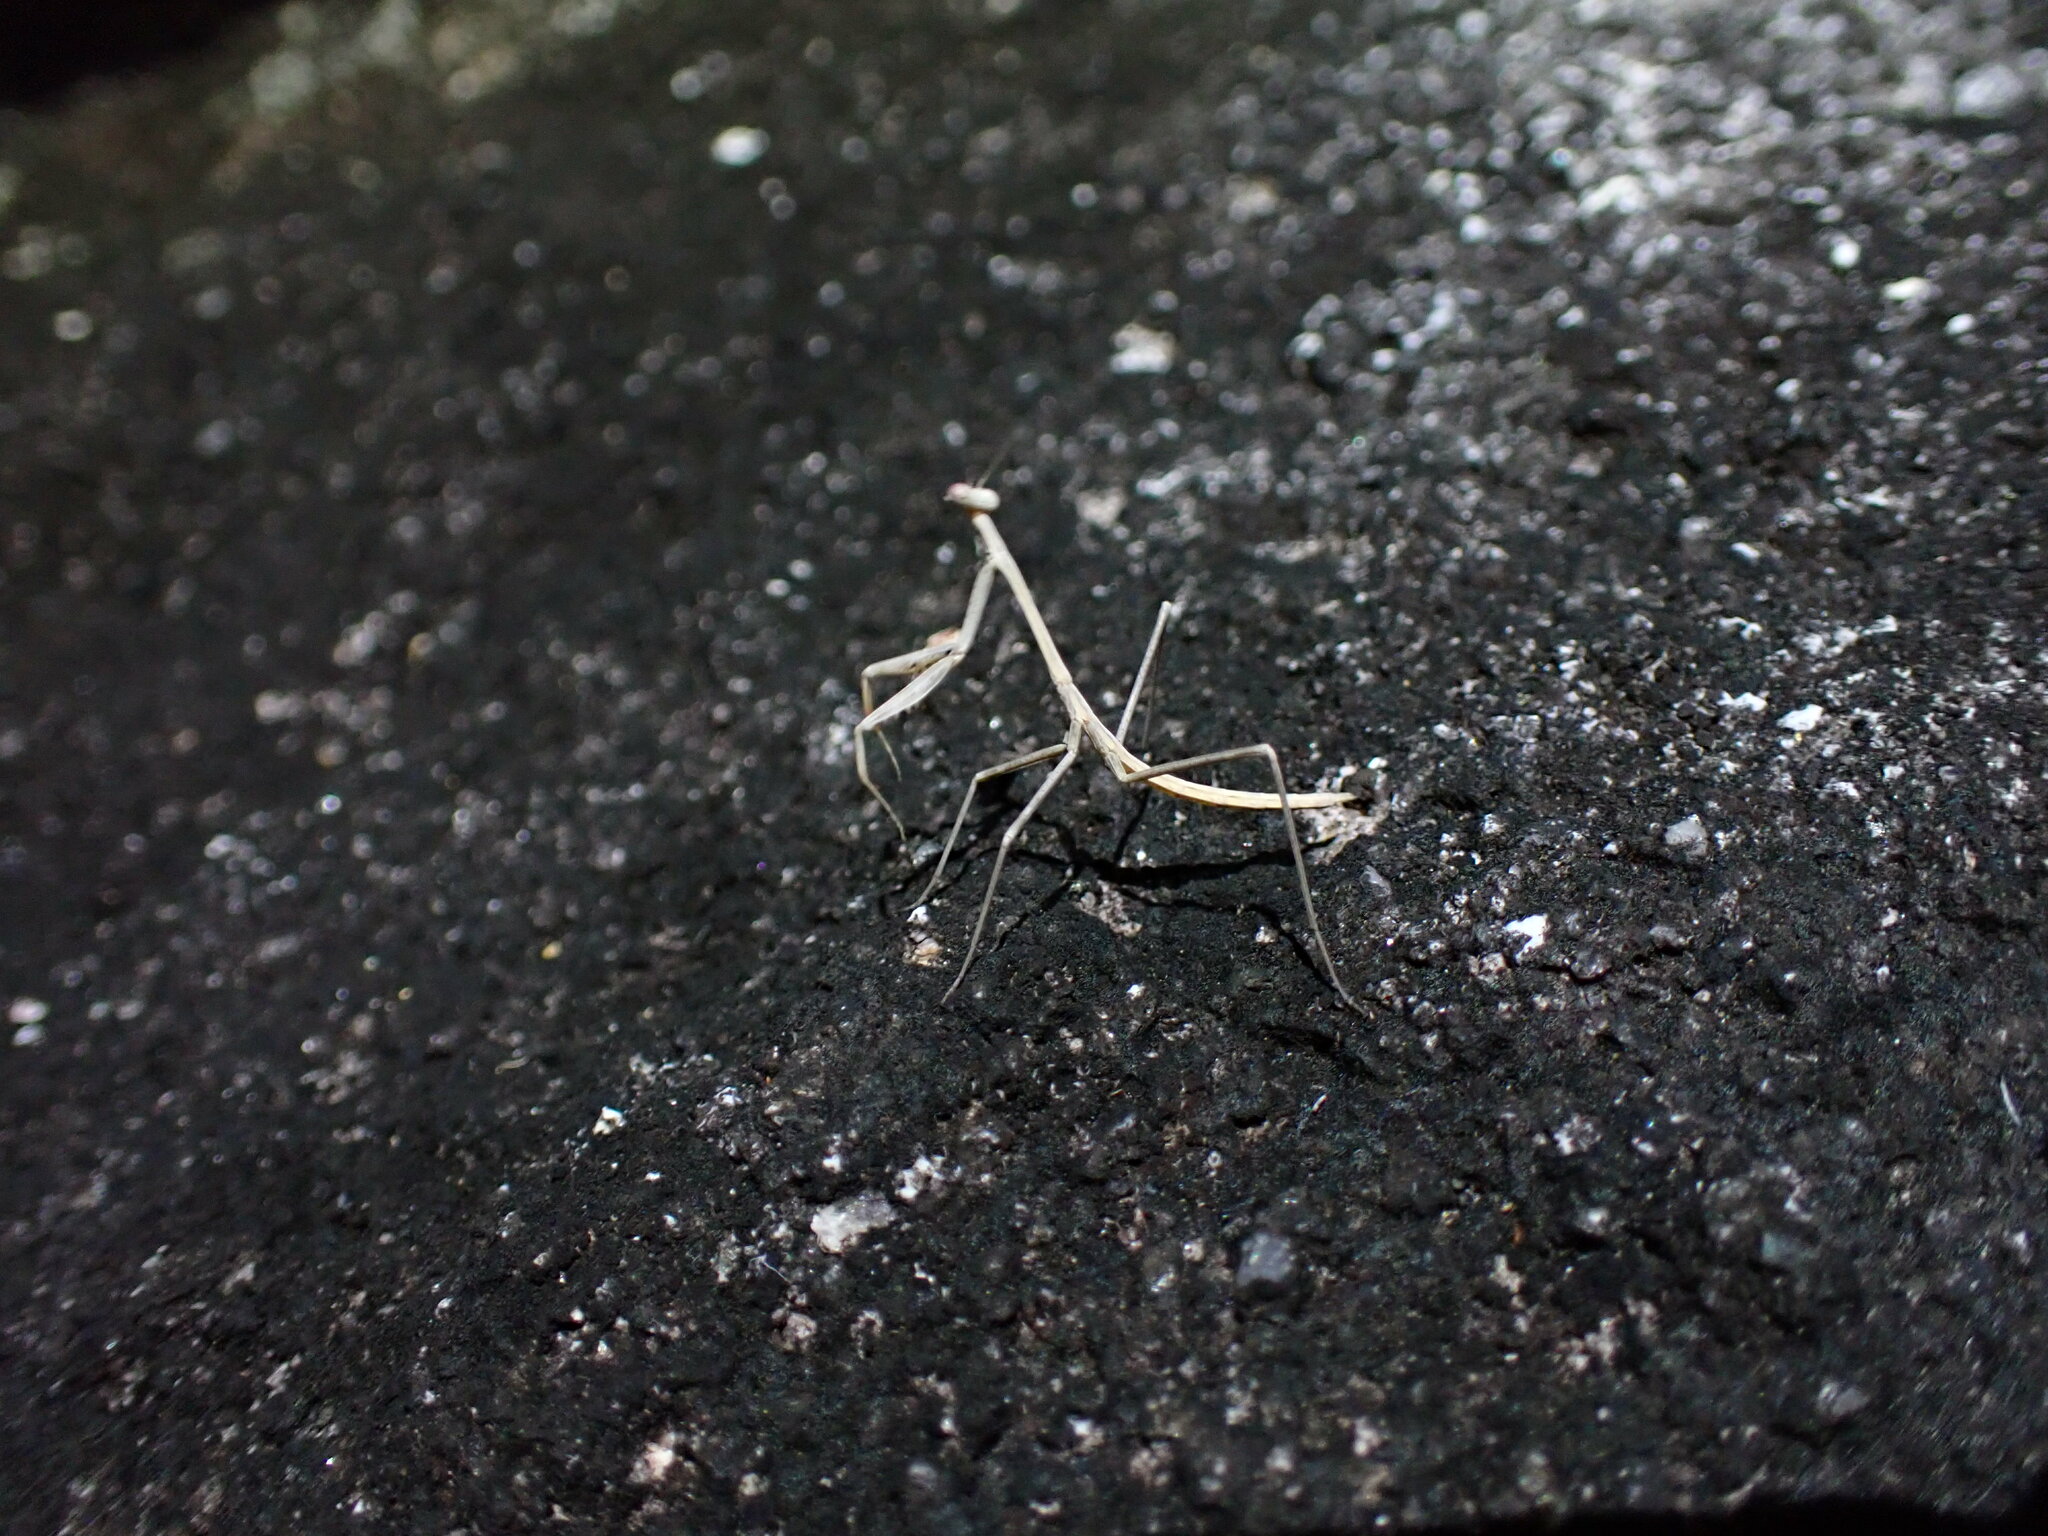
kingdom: Animalia
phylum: Arthropoda
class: Insecta
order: Mantodea
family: Mantidae
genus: Archimantis
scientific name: Archimantis latistyla
